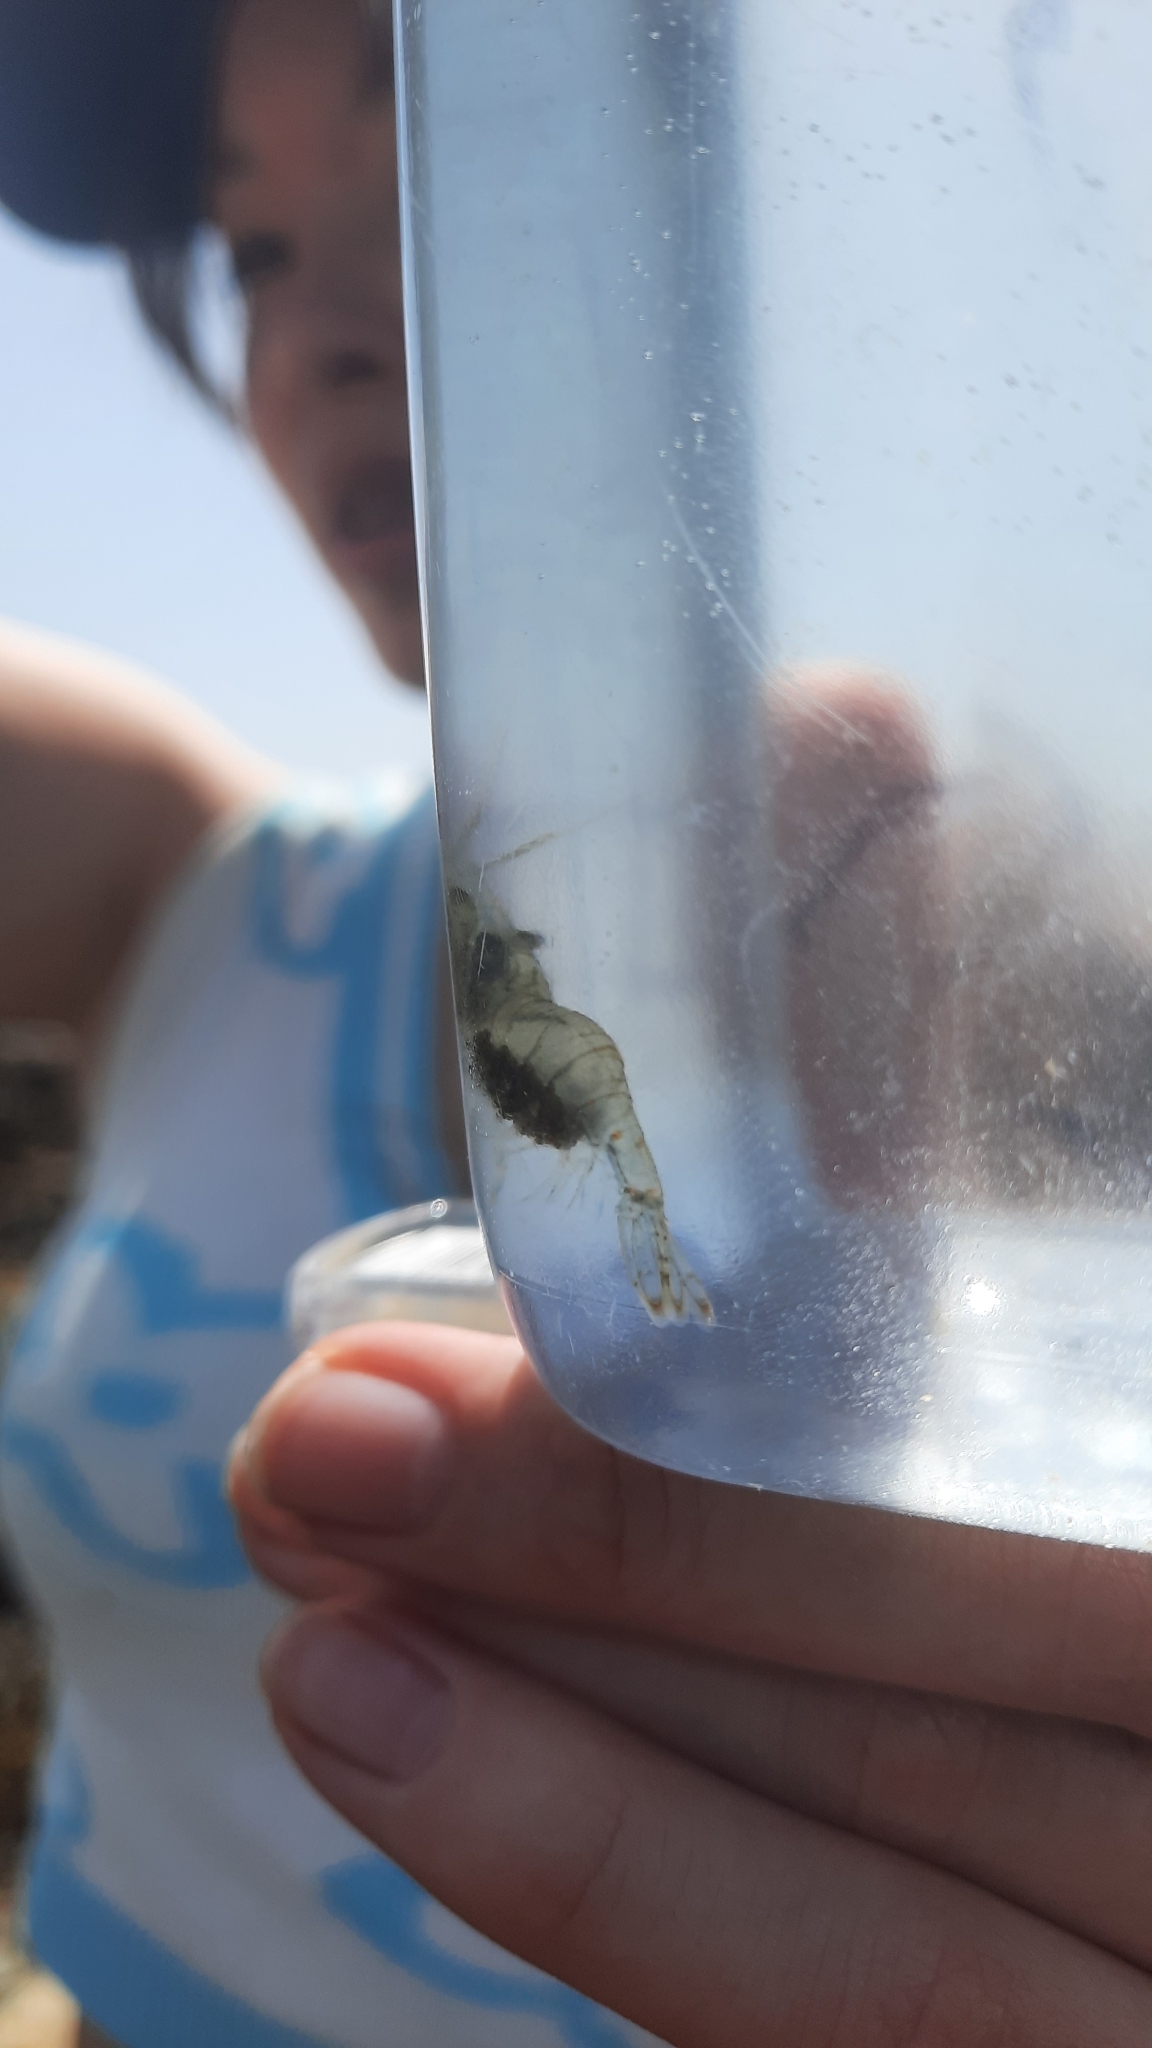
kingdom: Animalia
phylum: Arthropoda
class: Malacostraca
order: Decapoda
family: Palaemonidae
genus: Palaemon
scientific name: Palaemon elegans
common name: Grass prawm
